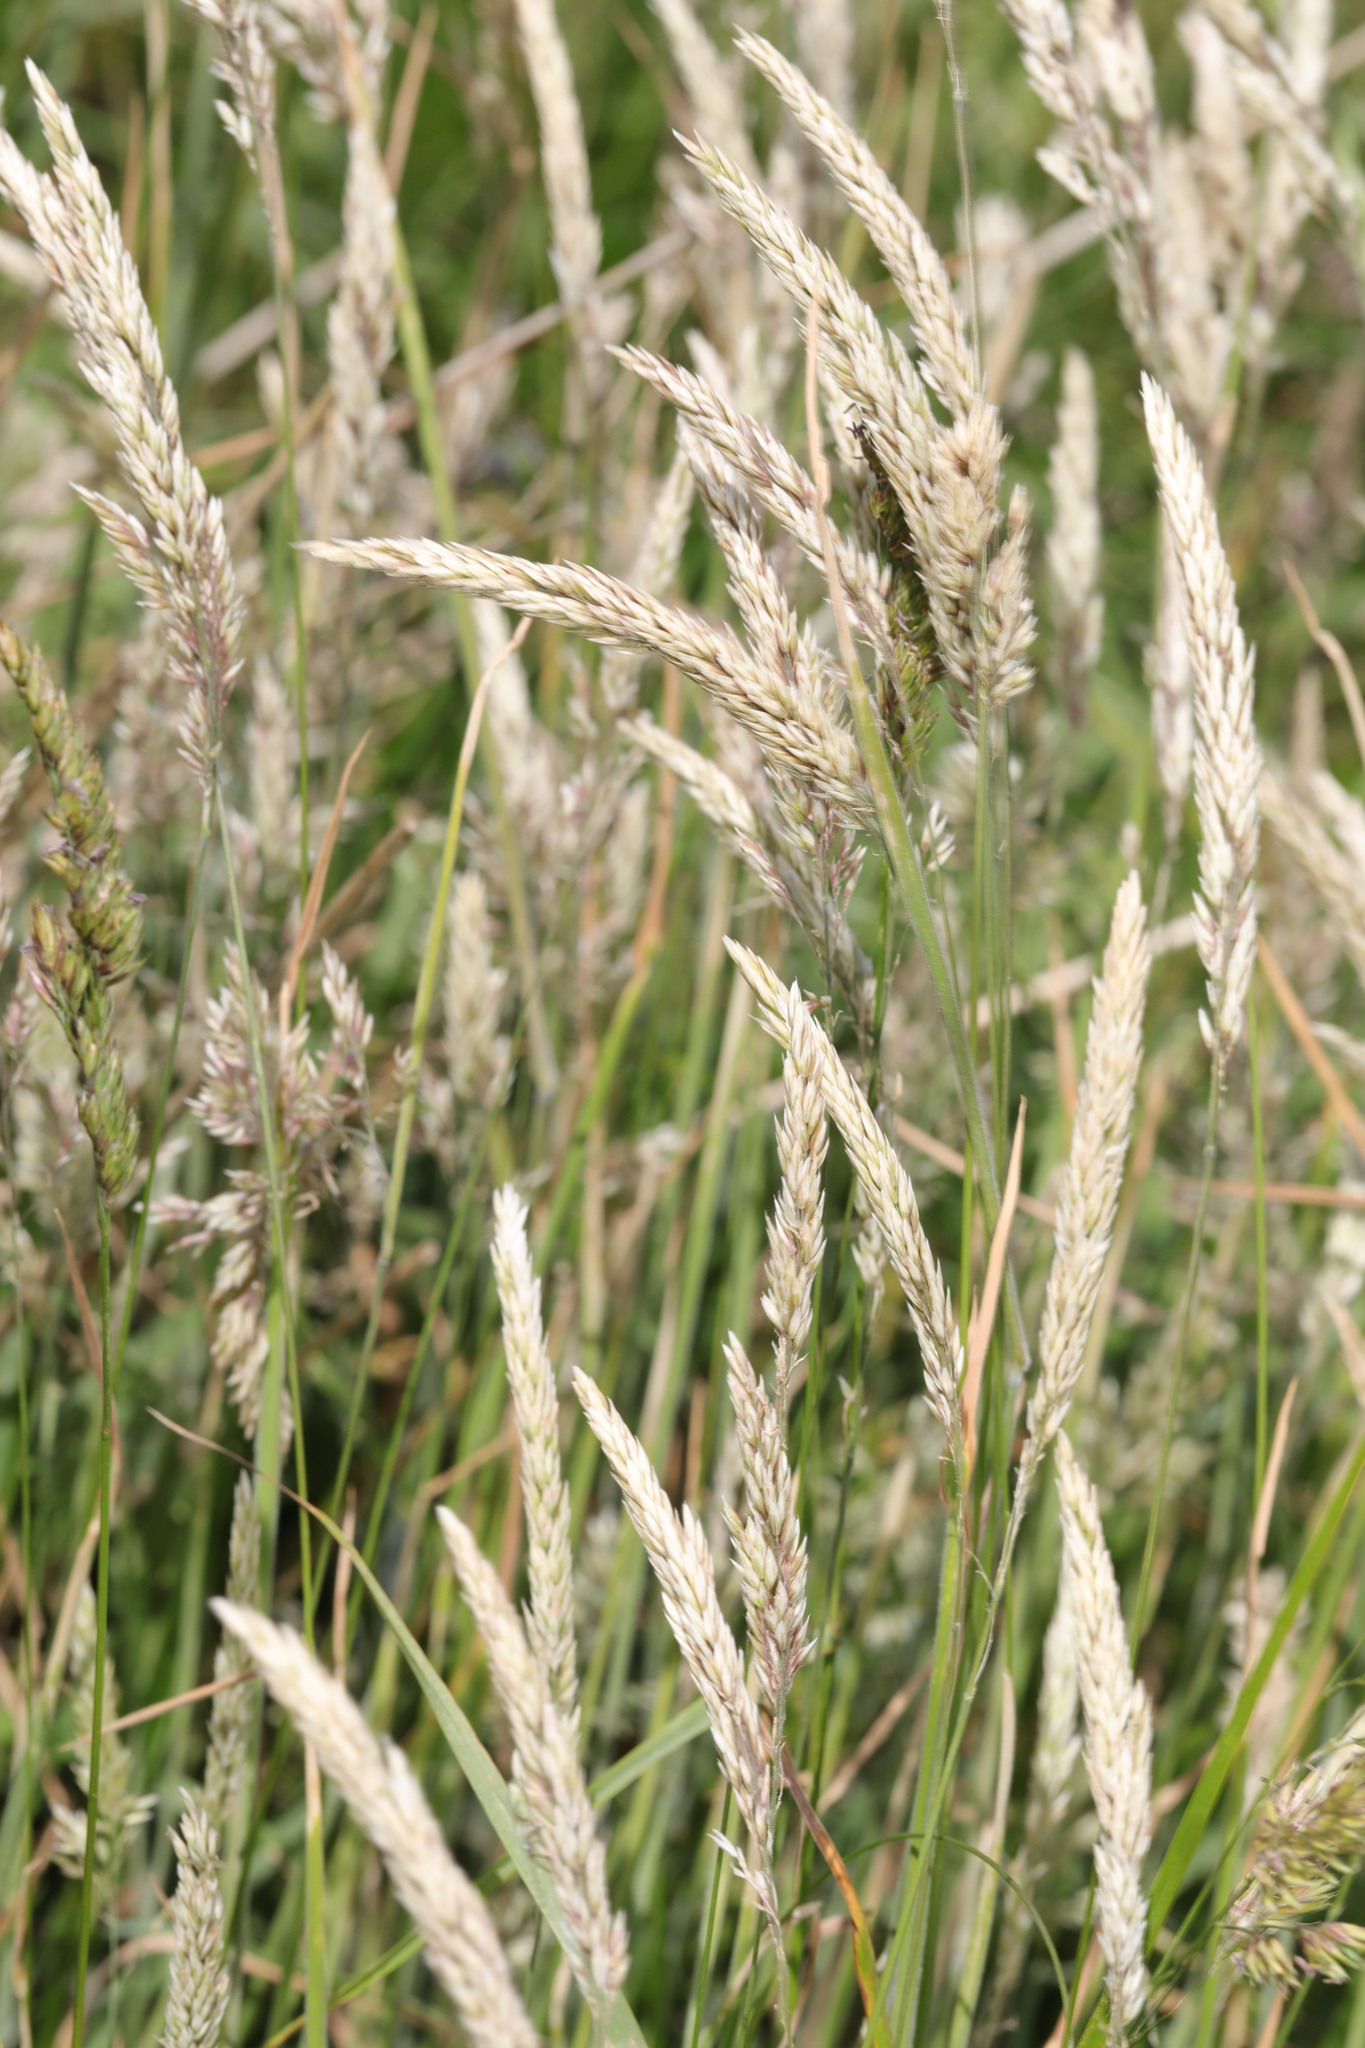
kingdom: Plantae
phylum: Tracheophyta
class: Liliopsida
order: Poales
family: Poaceae
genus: Holcus
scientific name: Holcus lanatus
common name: Yorkshire-fog
